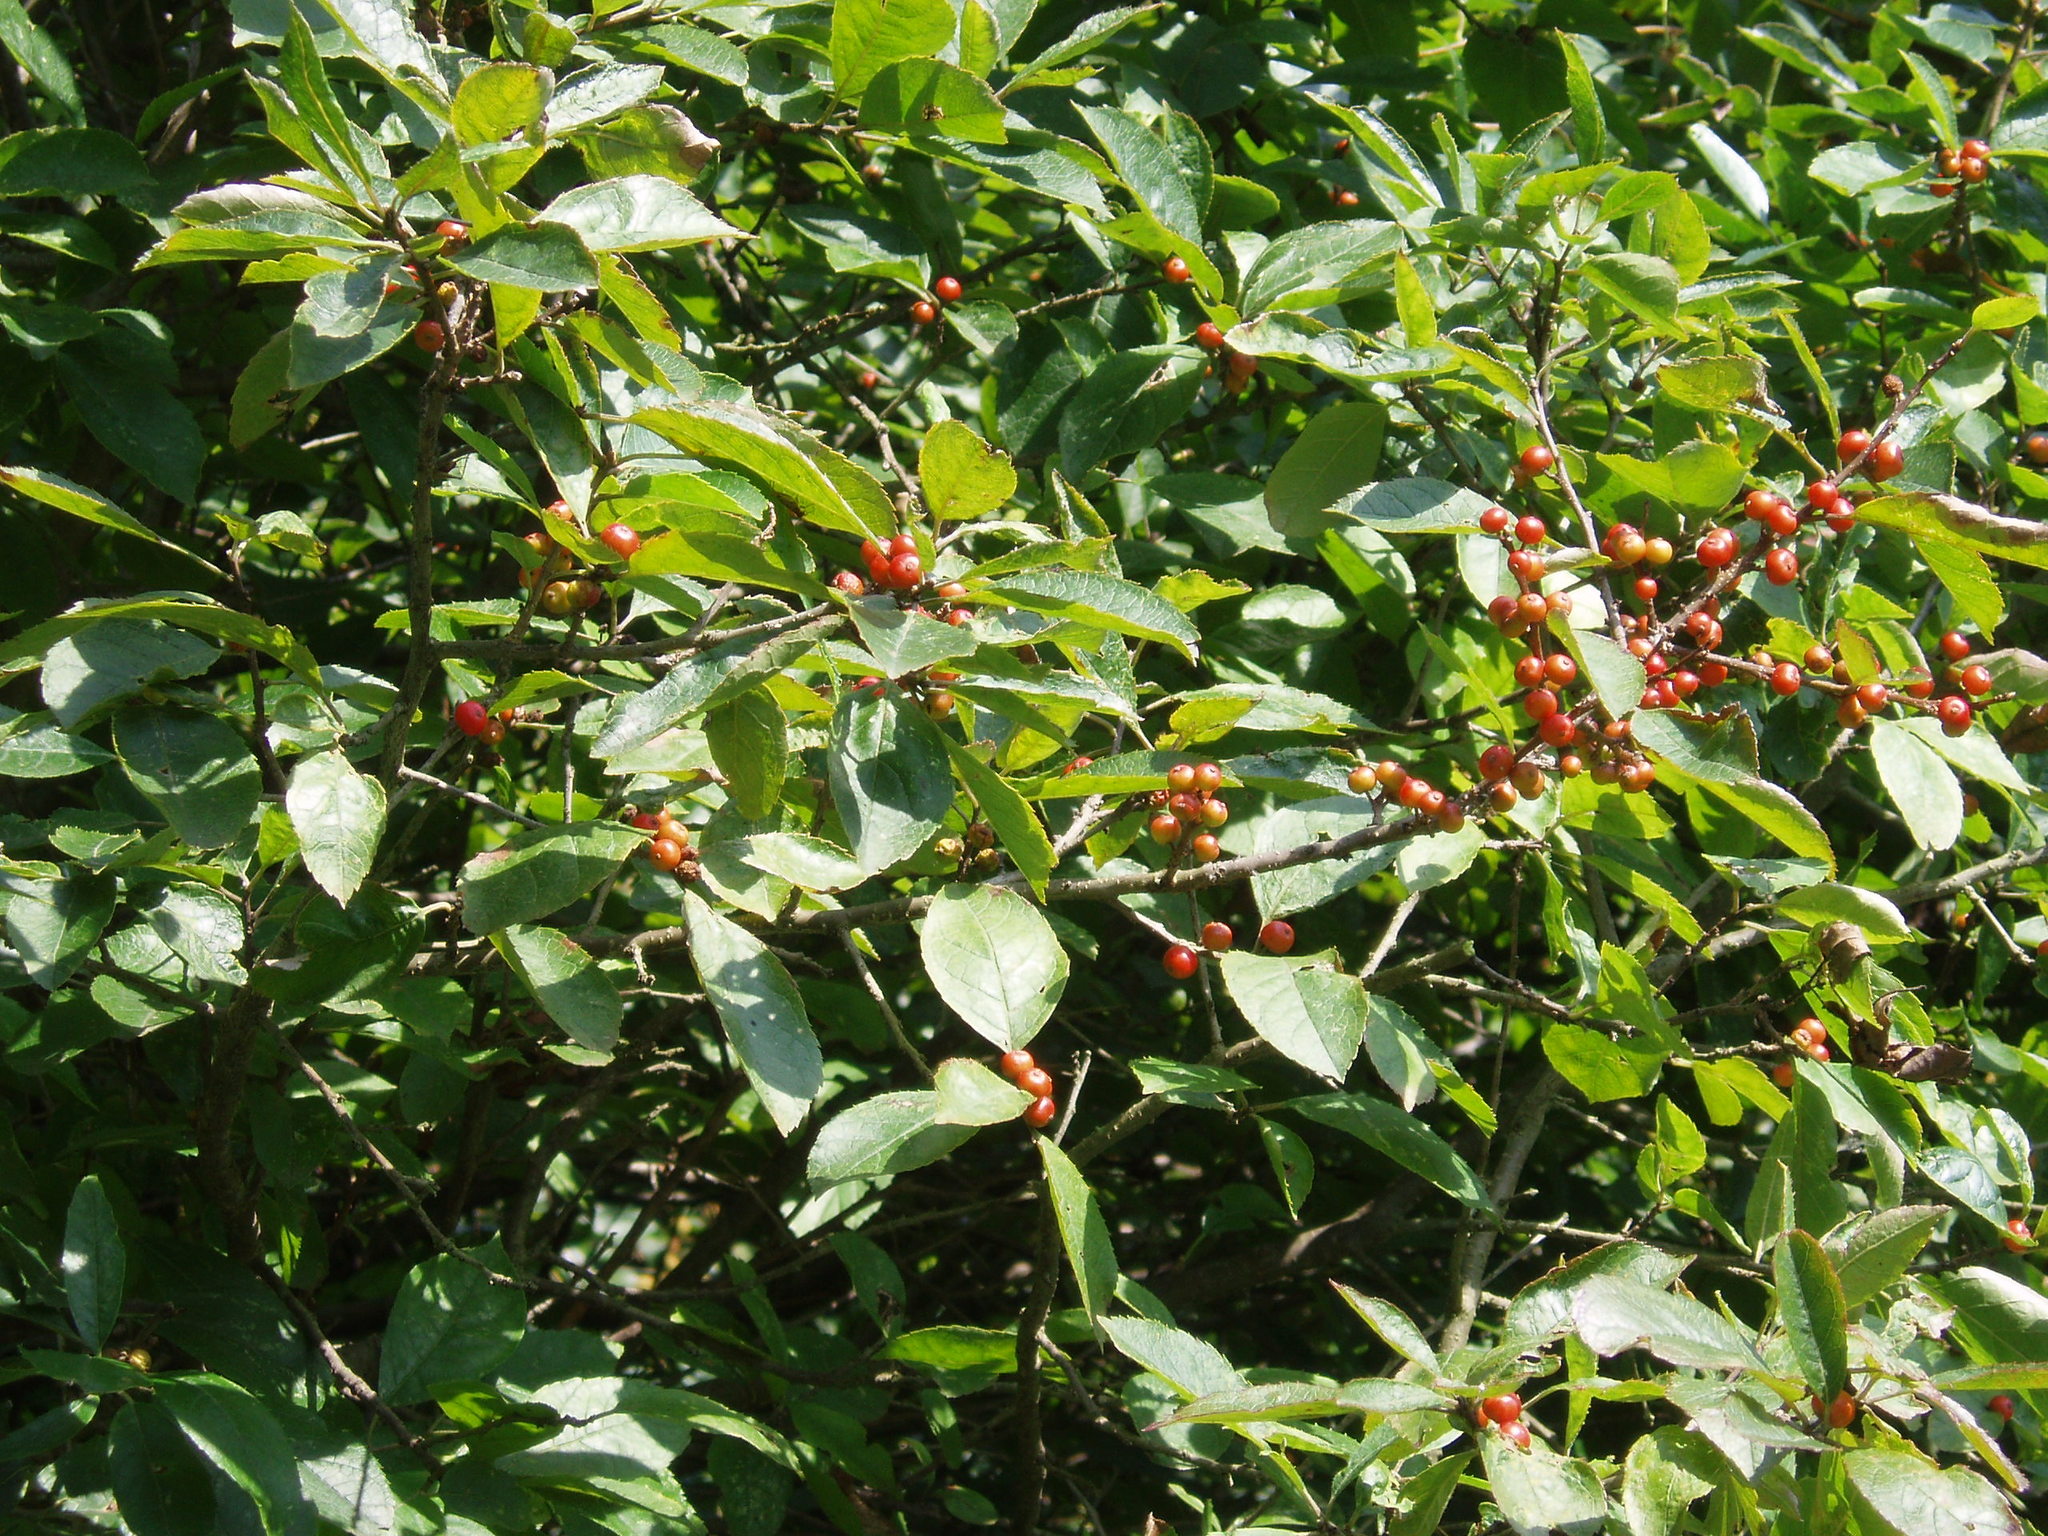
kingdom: Plantae
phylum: Tracheophyta
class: Magnoliopsida
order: Aquifoliales
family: Aquifoliaceae
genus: Ilex
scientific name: Ilex verticillata
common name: Virginia winterberry
